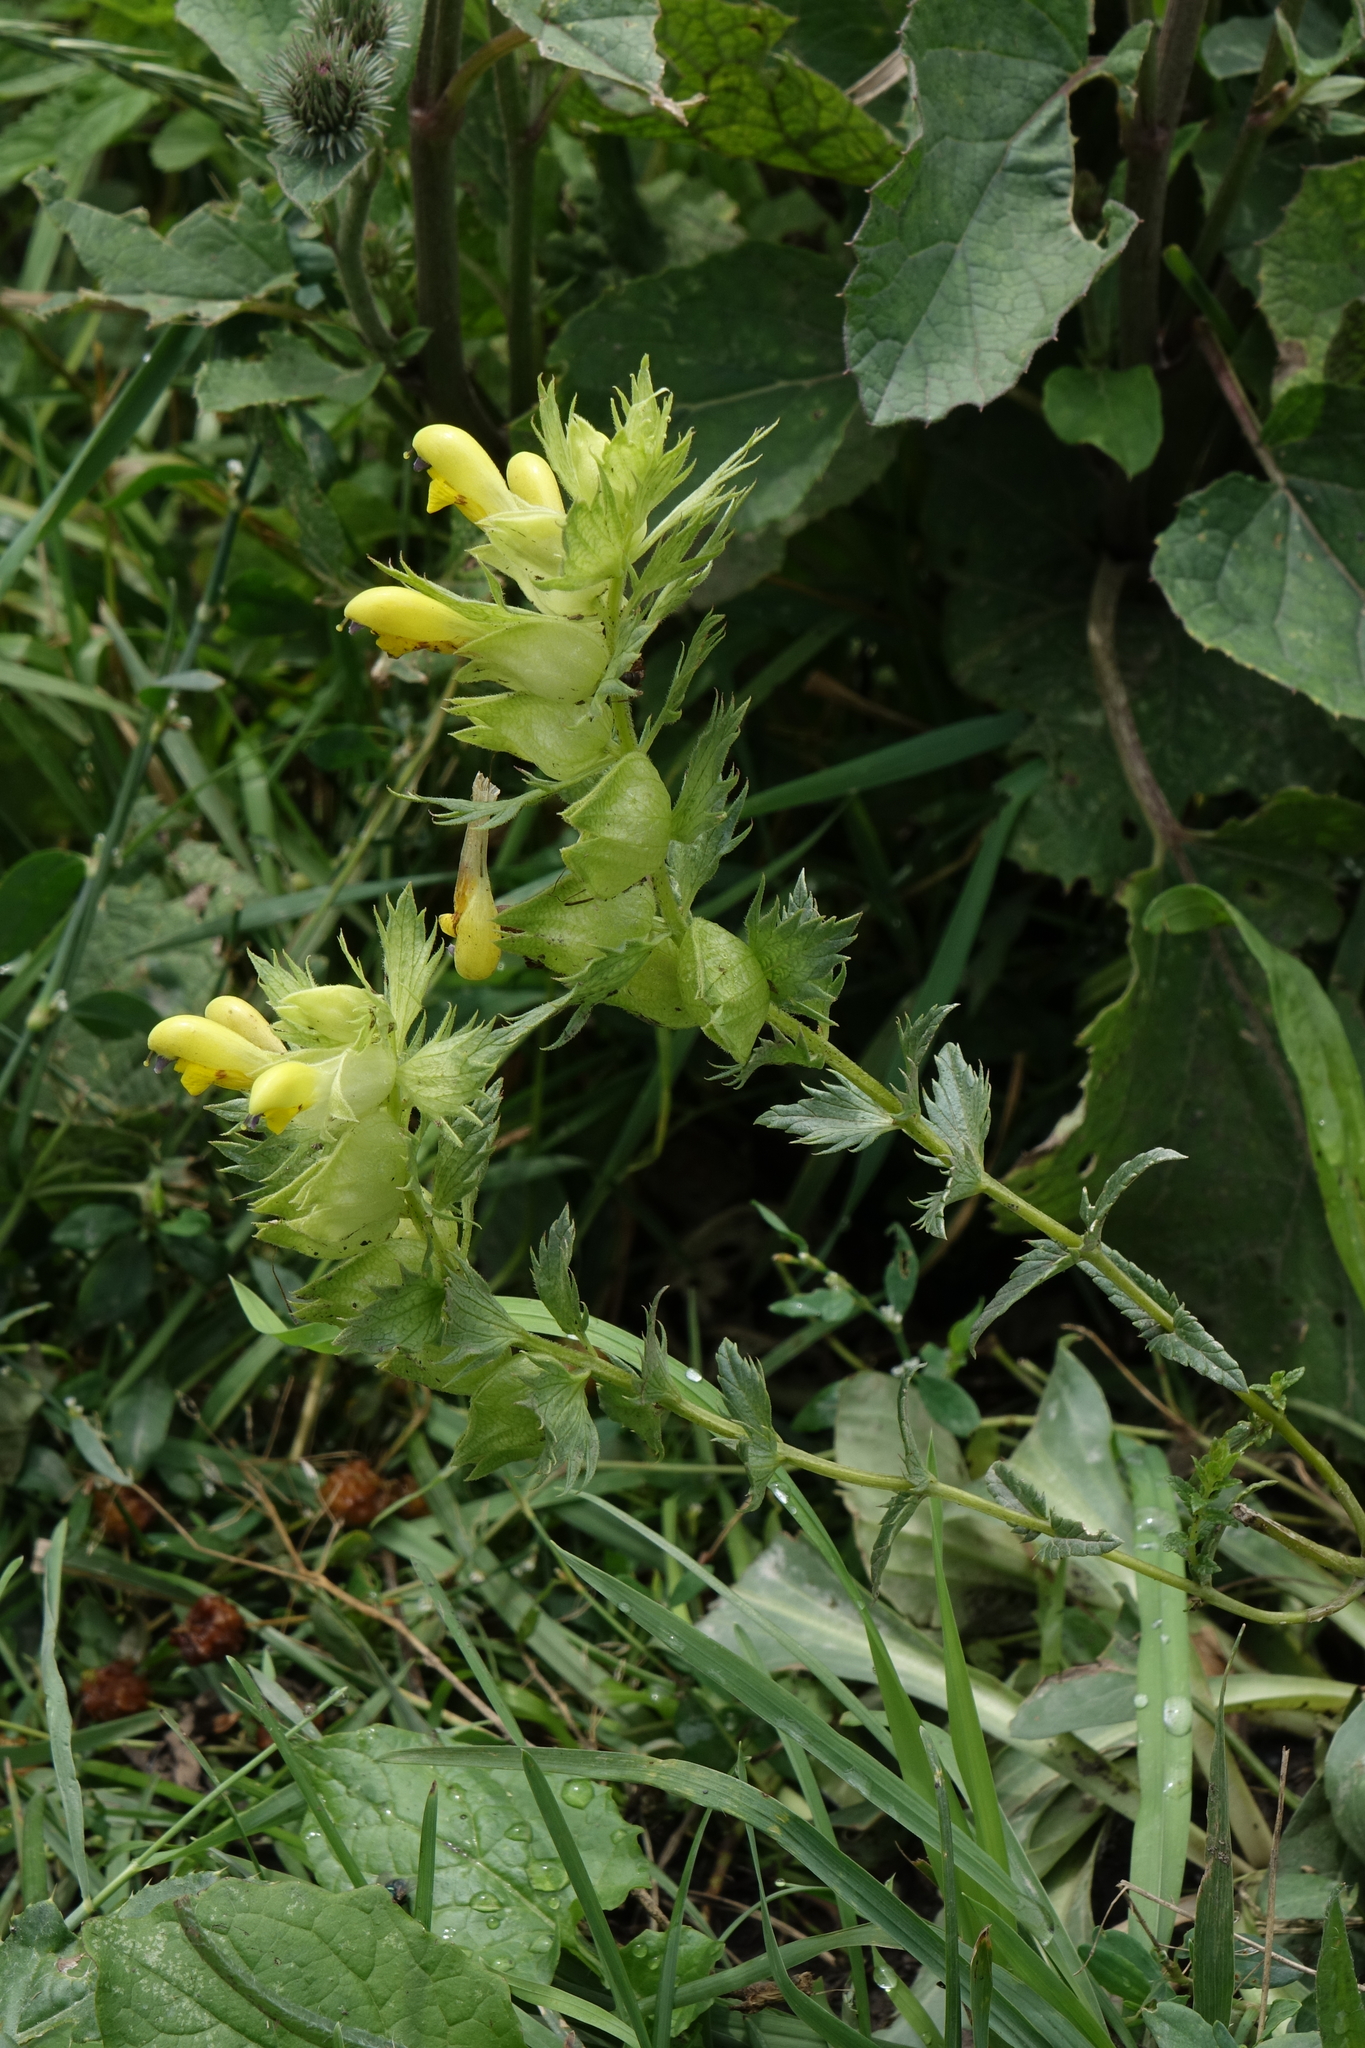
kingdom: Plantae
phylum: Tracheophyta
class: Magnoliopsida
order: Lamiales
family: Orobanchaceae
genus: Rhinanthus
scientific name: Rhinanthus serotinus
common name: Late-flowering yellow rattle
